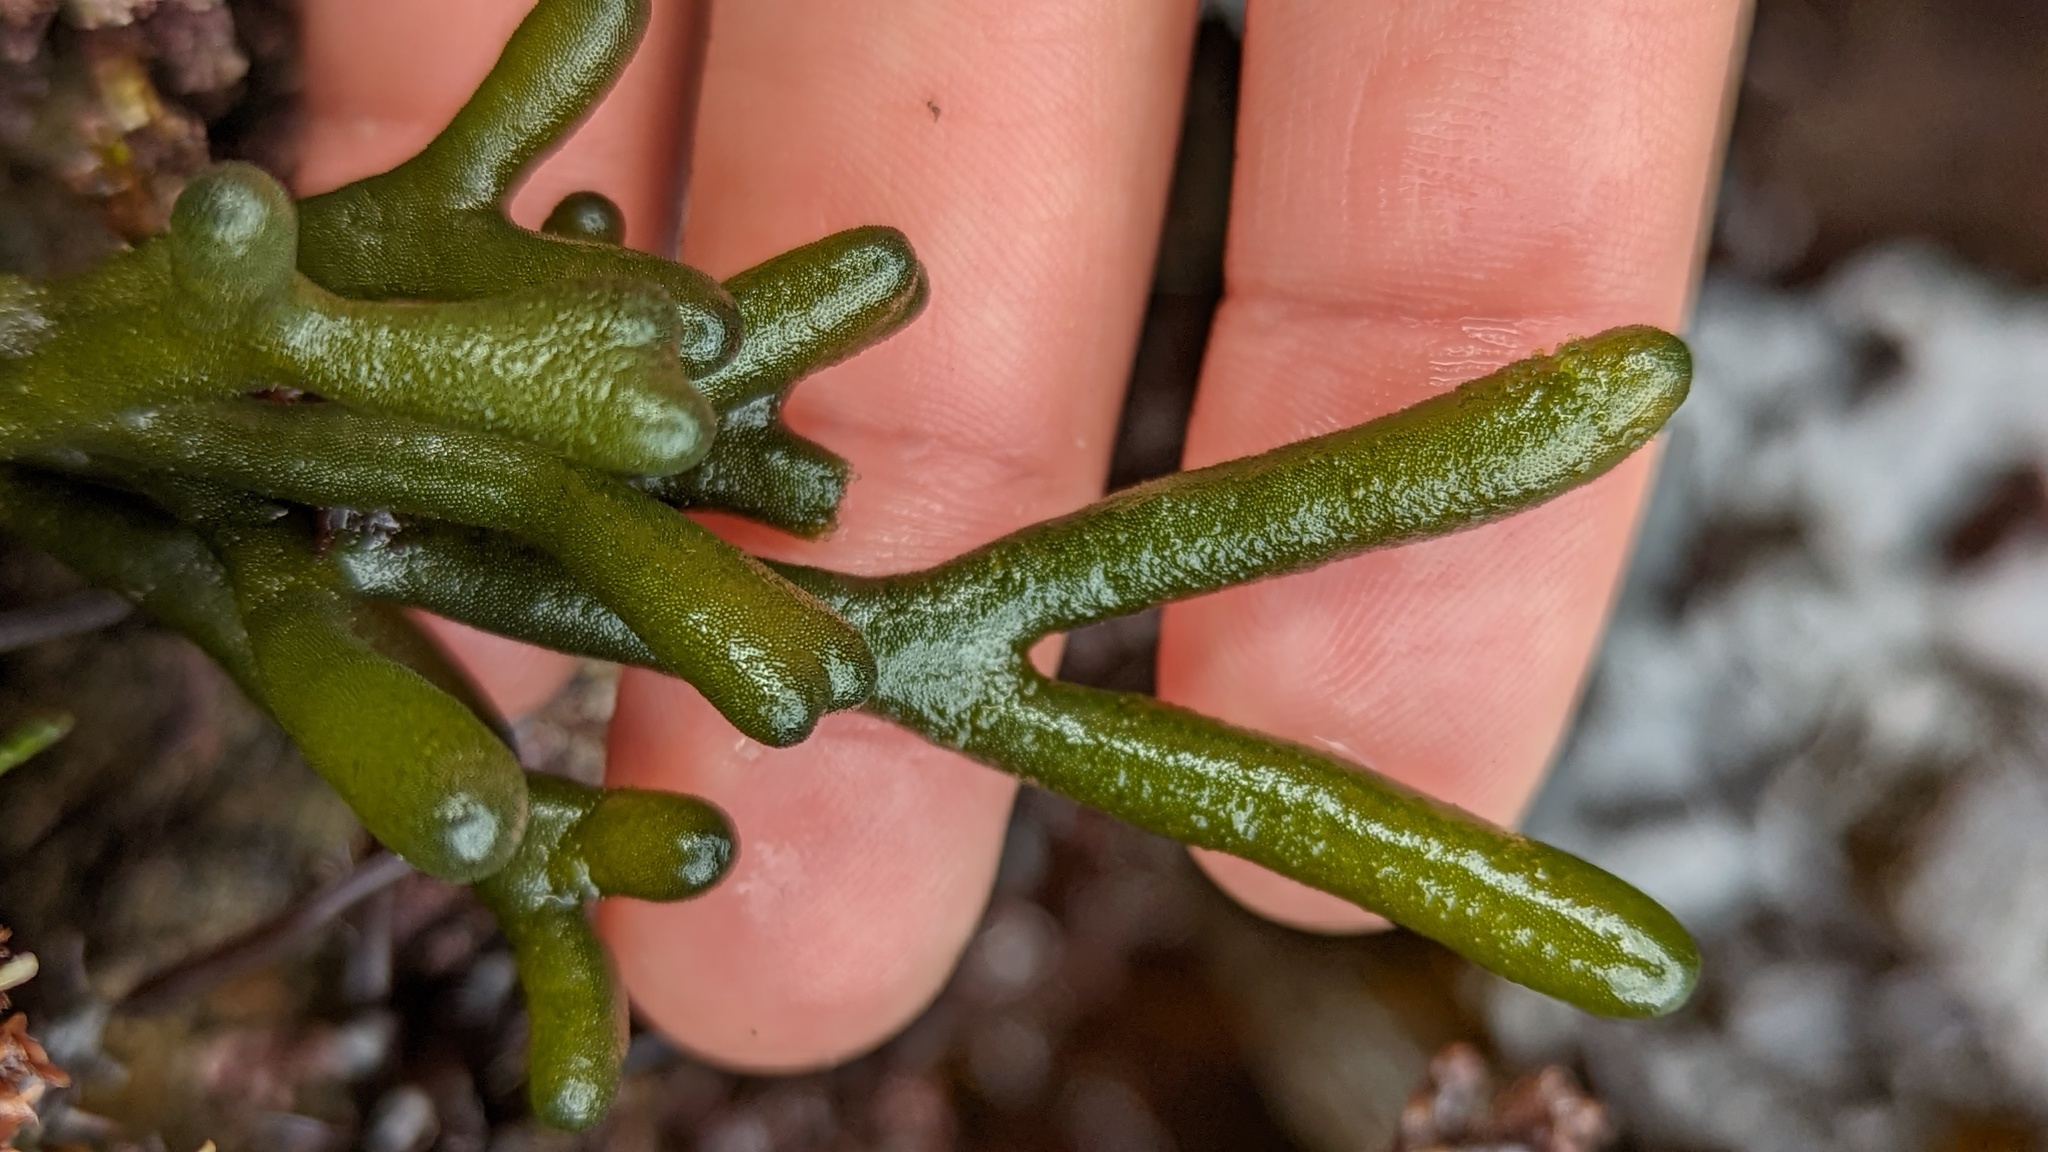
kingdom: Plantae
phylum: Chlorophyta
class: Ulvophyceae
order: Bryopsidales
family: Codiaceae
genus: Codium
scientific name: Codium fragile
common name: Dead man's fingers
